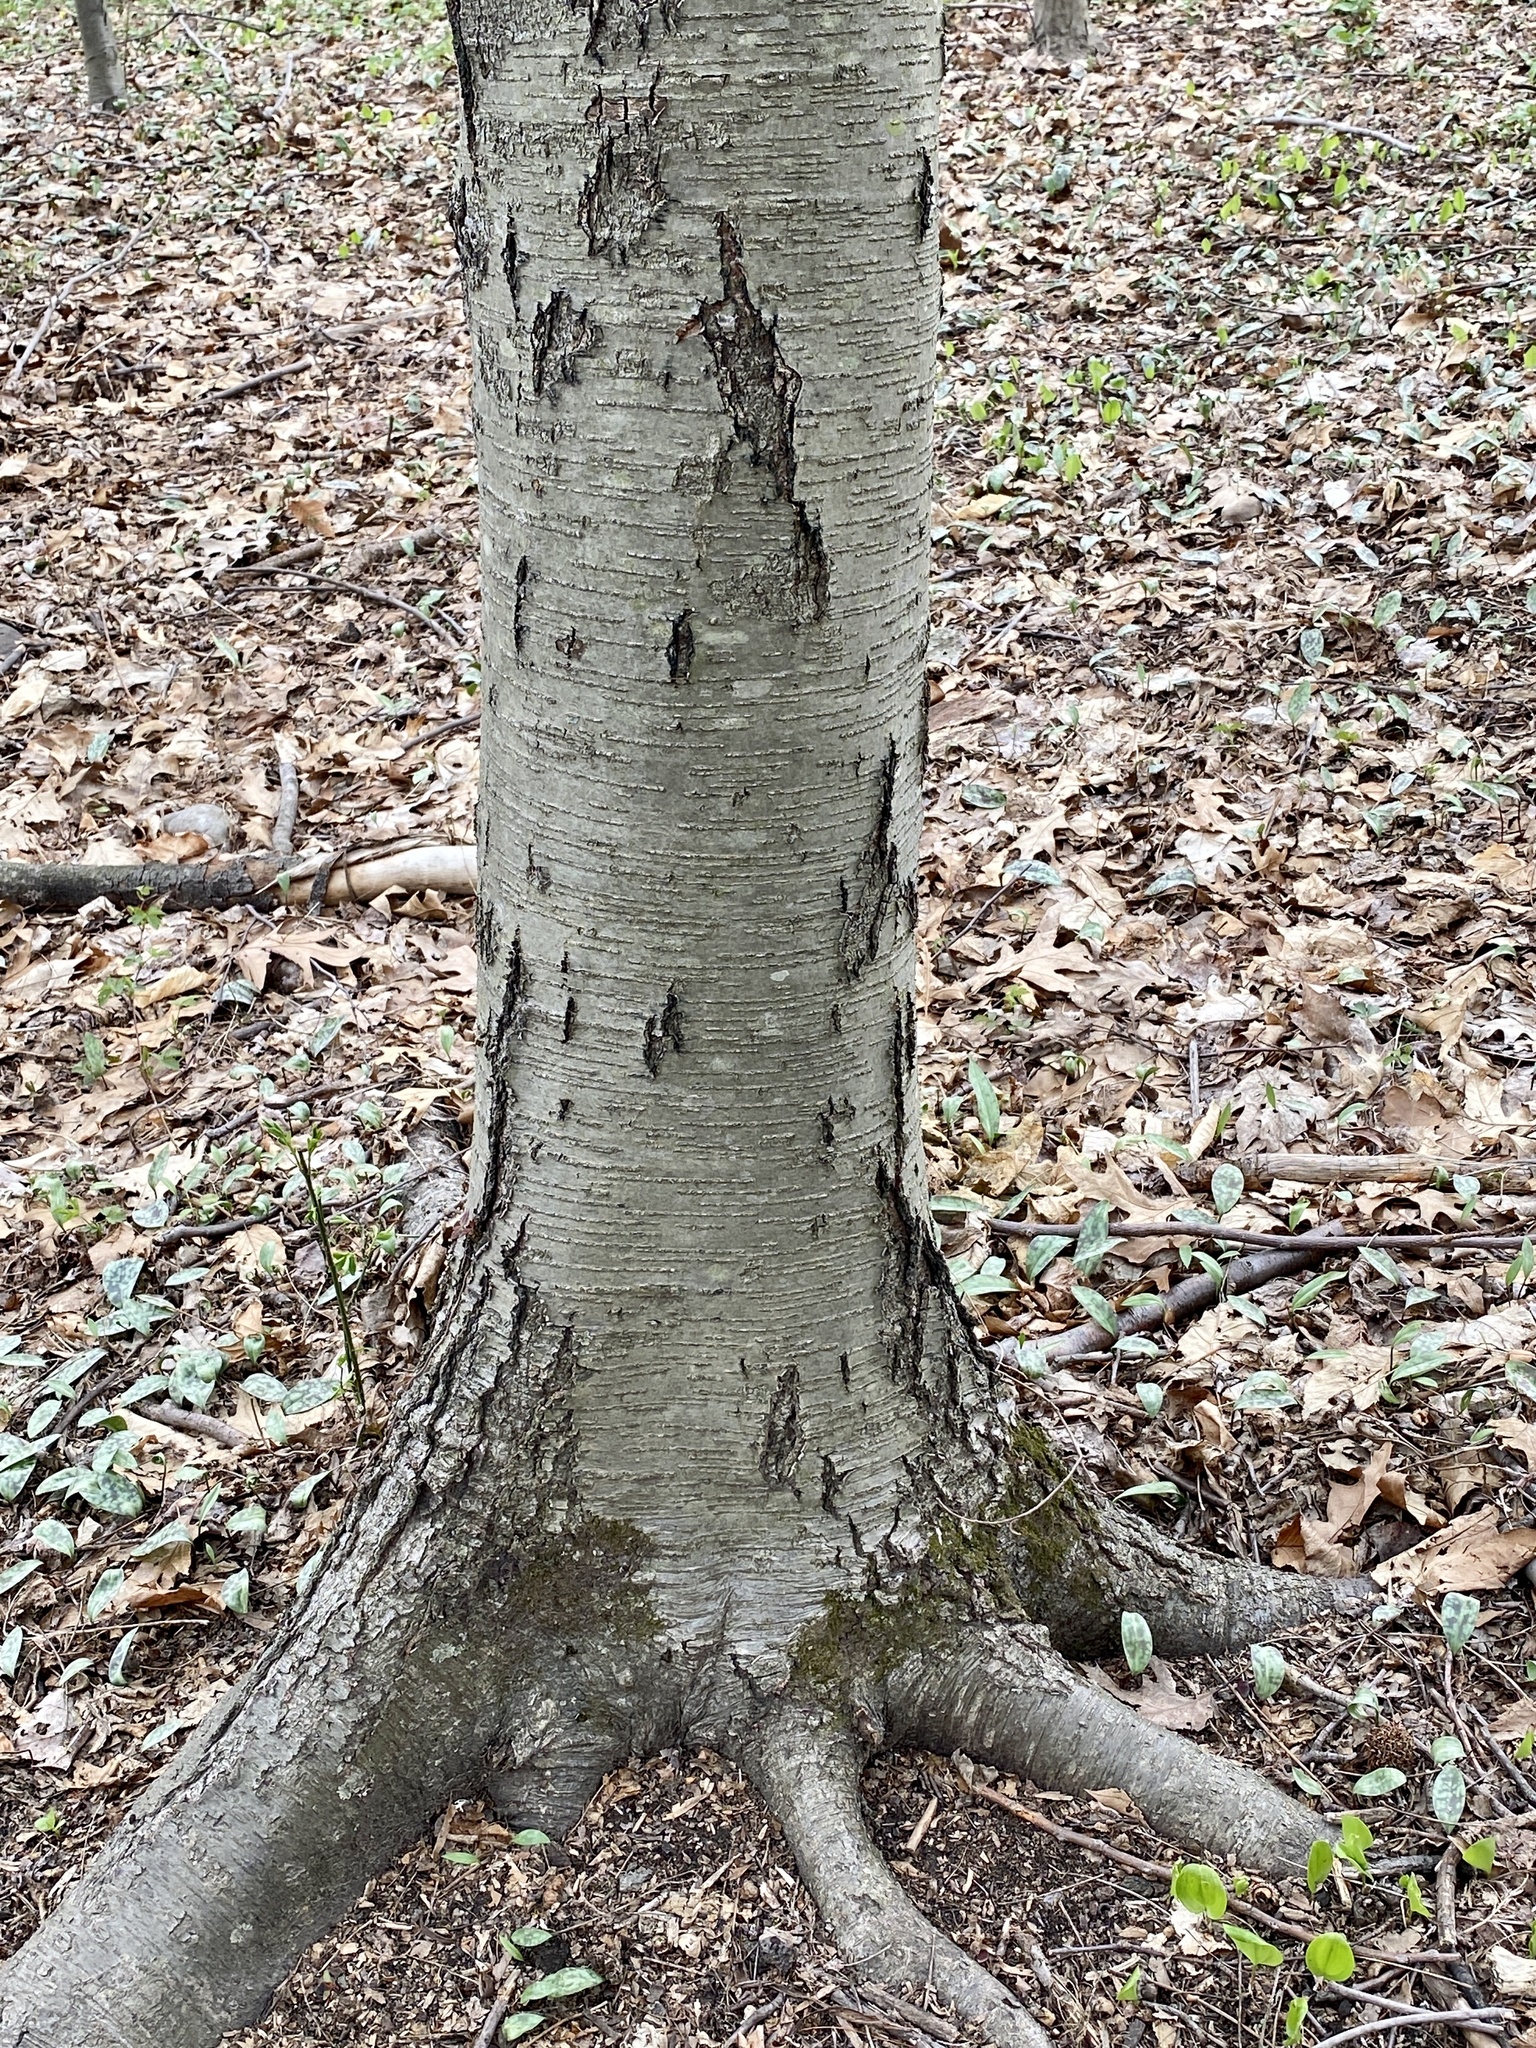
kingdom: Plantae
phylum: Tracheophyta
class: Magnoliopsida
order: Fagales
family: Betulaceae
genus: Betula
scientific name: Betula lenta
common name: Black birch
